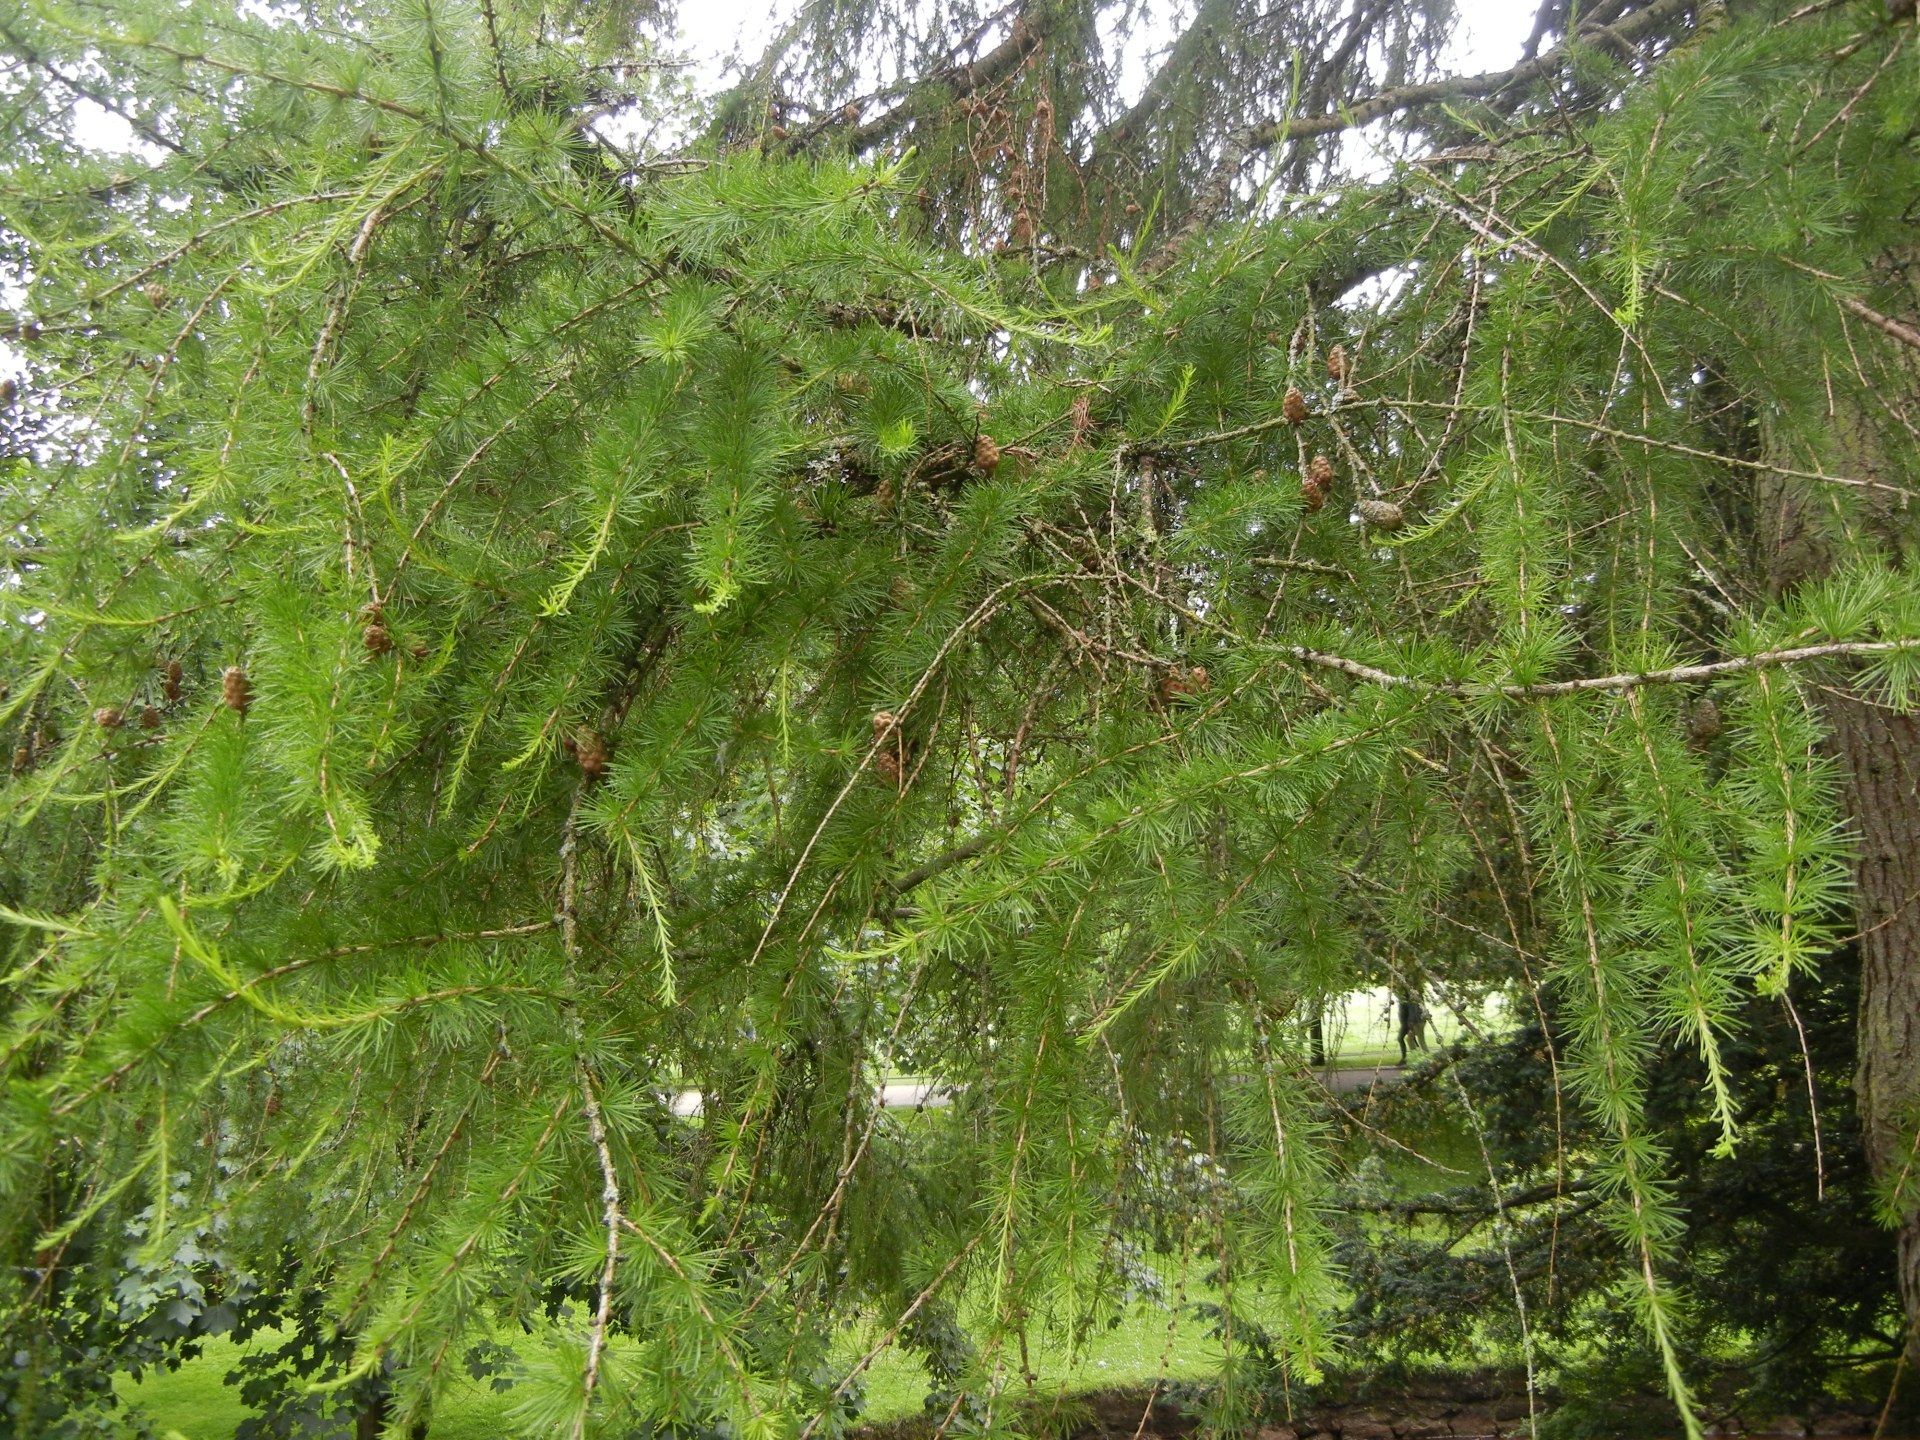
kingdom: Plantae
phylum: Tracheophyta
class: Pinopsida
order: Pinales
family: Pinaceae
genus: Larix
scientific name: Larix decidua
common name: European larch
